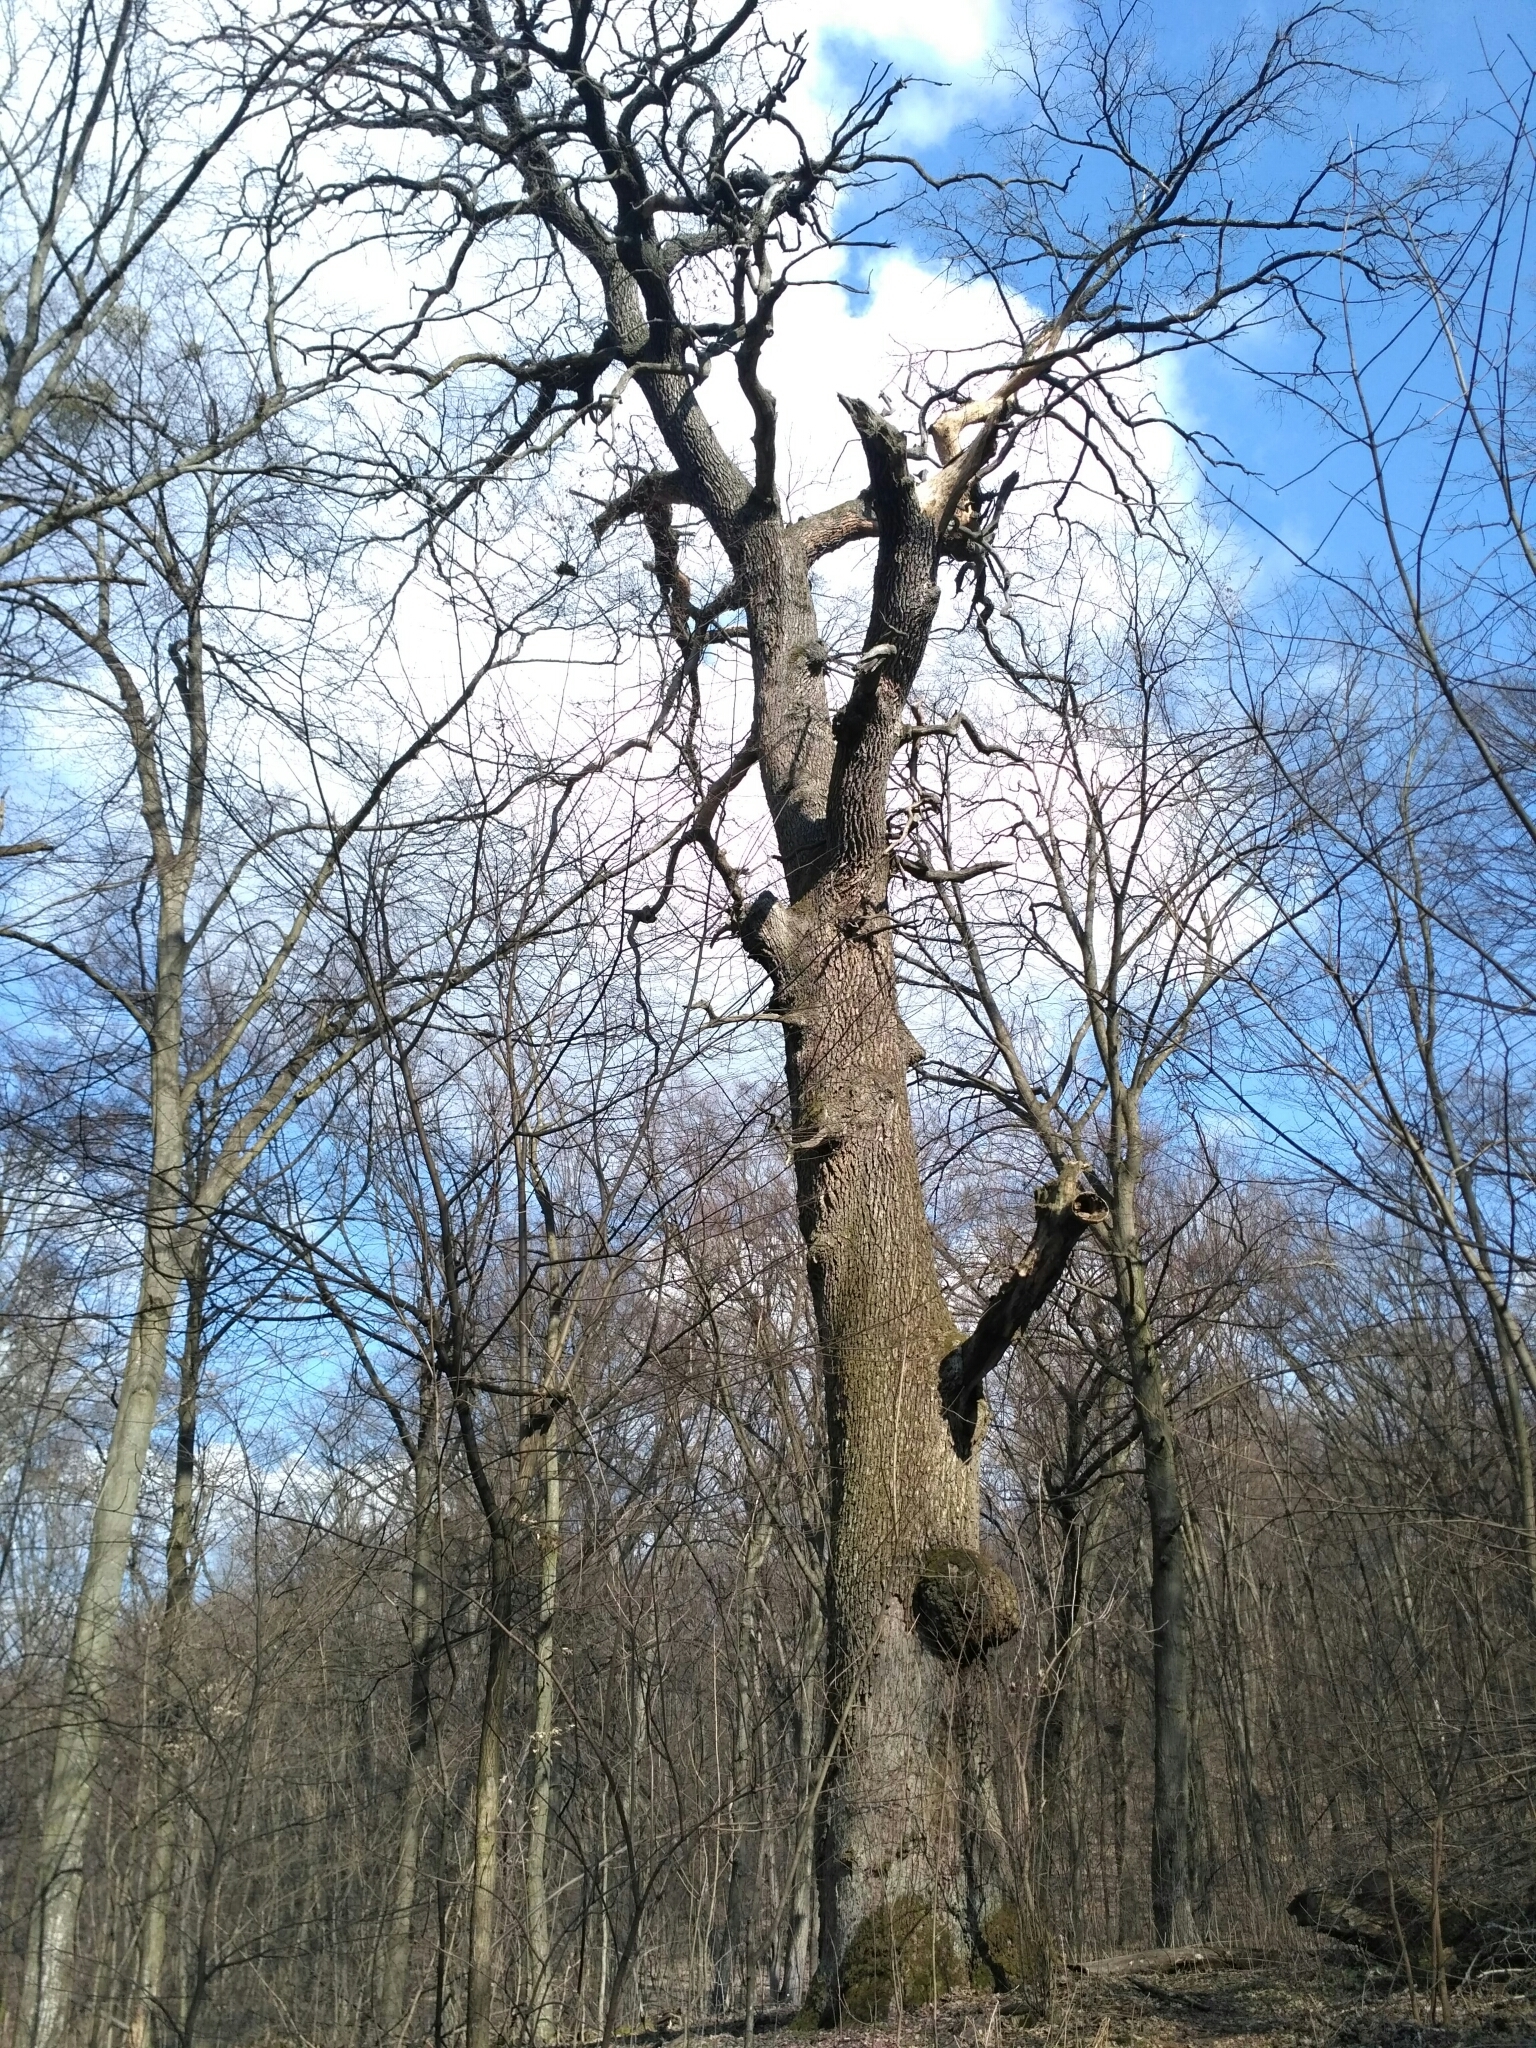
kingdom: Plantae
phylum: Tracheophyta
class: Magnoliopsida
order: Fagales
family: Fagaceae
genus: Quercus
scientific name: Quercus robur
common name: Pedunculate oak
